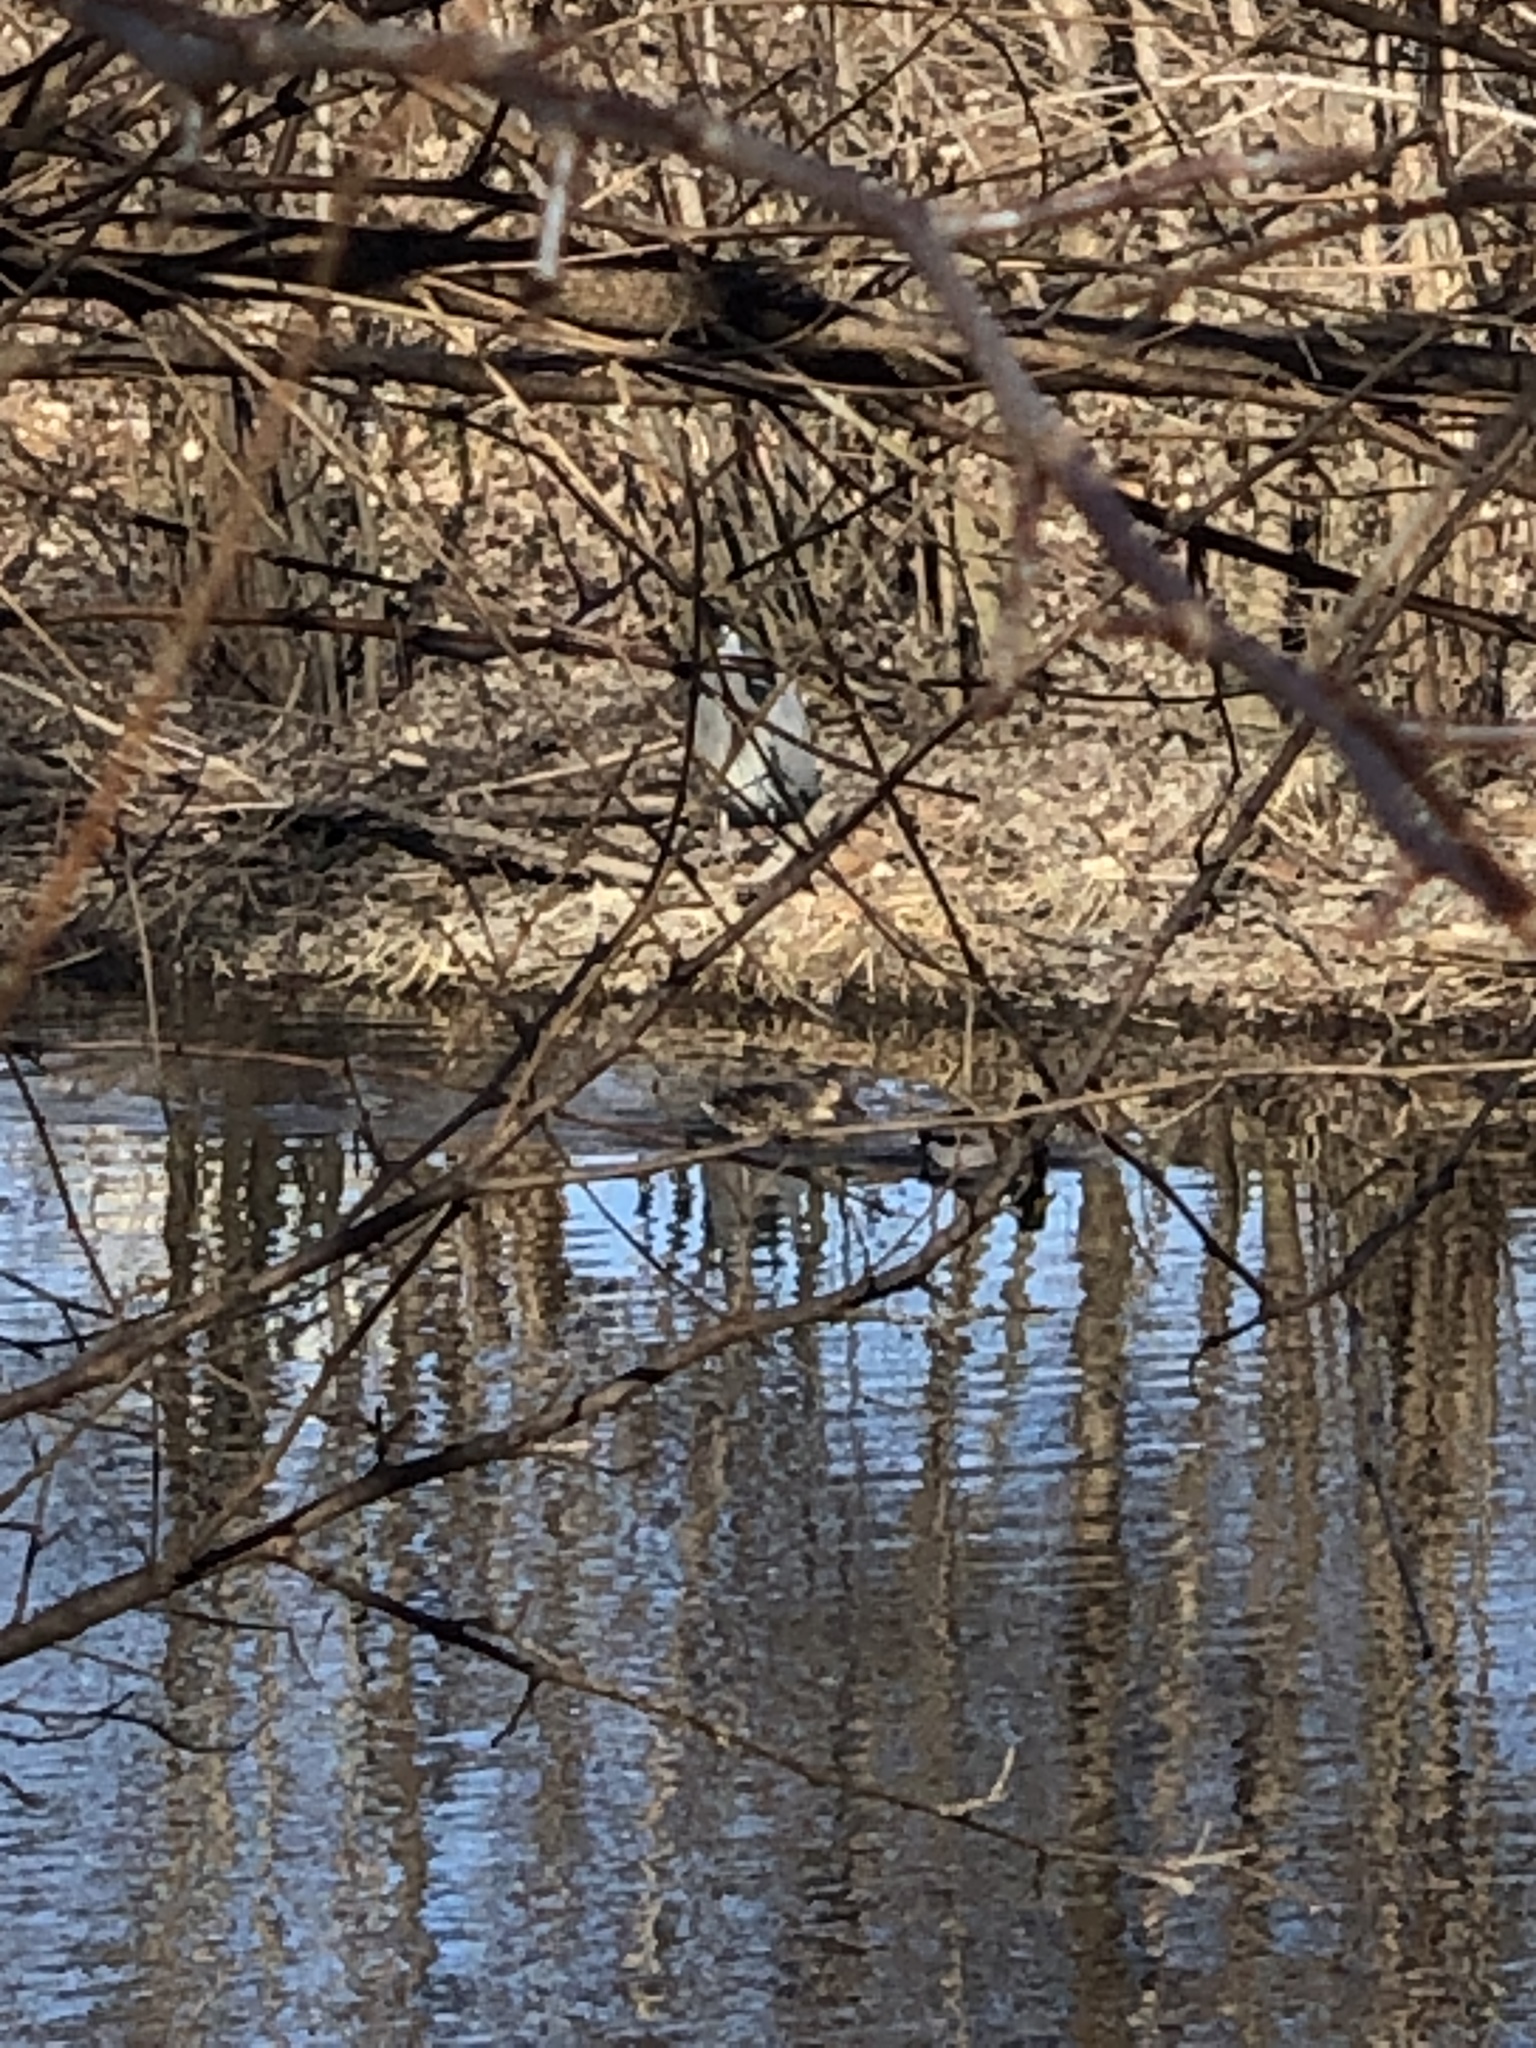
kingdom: Animalia
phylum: Chordata
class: Aves
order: Pelecaniformes
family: Ardeidae
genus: Ardea
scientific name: Ardea herodias
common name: Great blue heron
